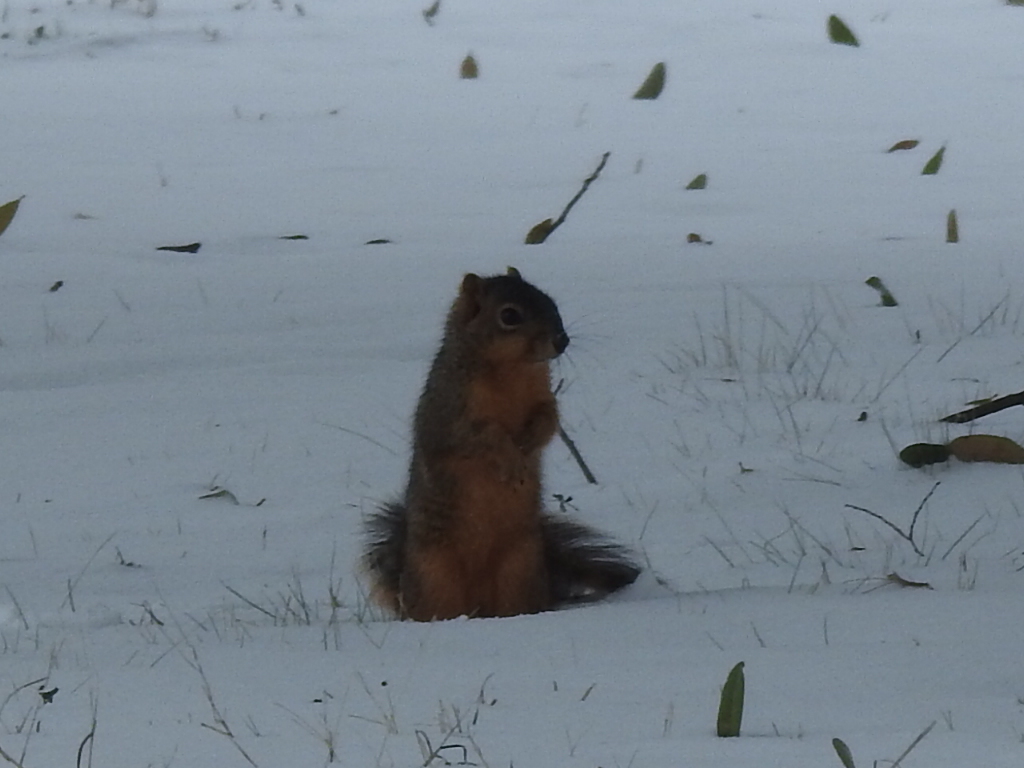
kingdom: Animalia
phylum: Chordata
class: Mammalia
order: Rodentia
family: Sciuridae
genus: Sciurus
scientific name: Sciurus niger
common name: Fox squirrel
